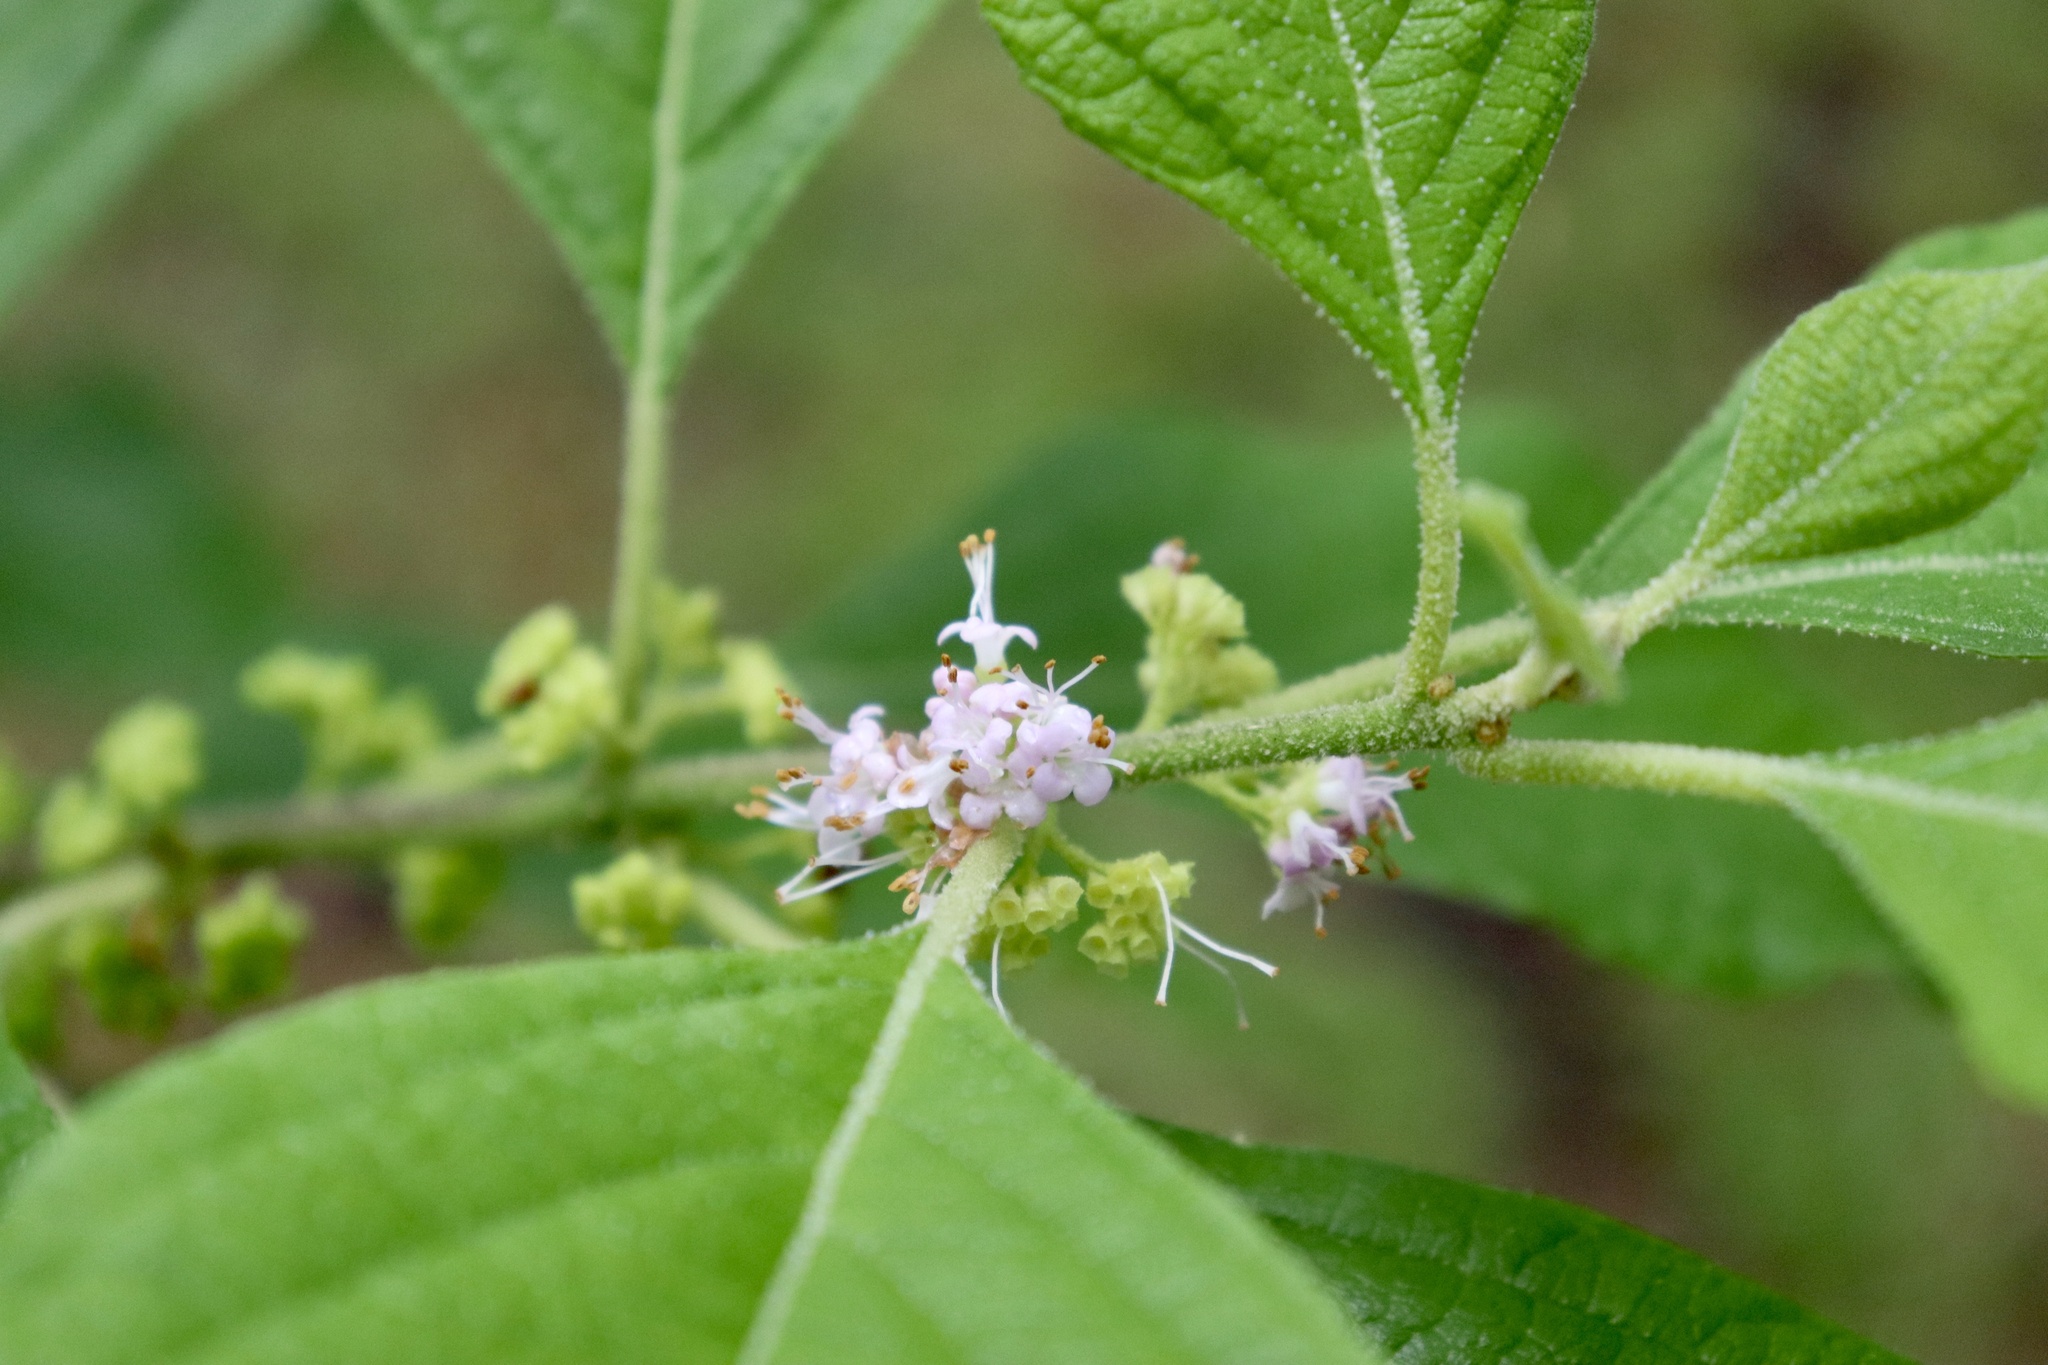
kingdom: Plantae
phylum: Tracheophyta
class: Magnoliopsida
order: Lamiales
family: Lamiaceae
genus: Callicarpa
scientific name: Callicarpa americana
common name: American beautyberry
